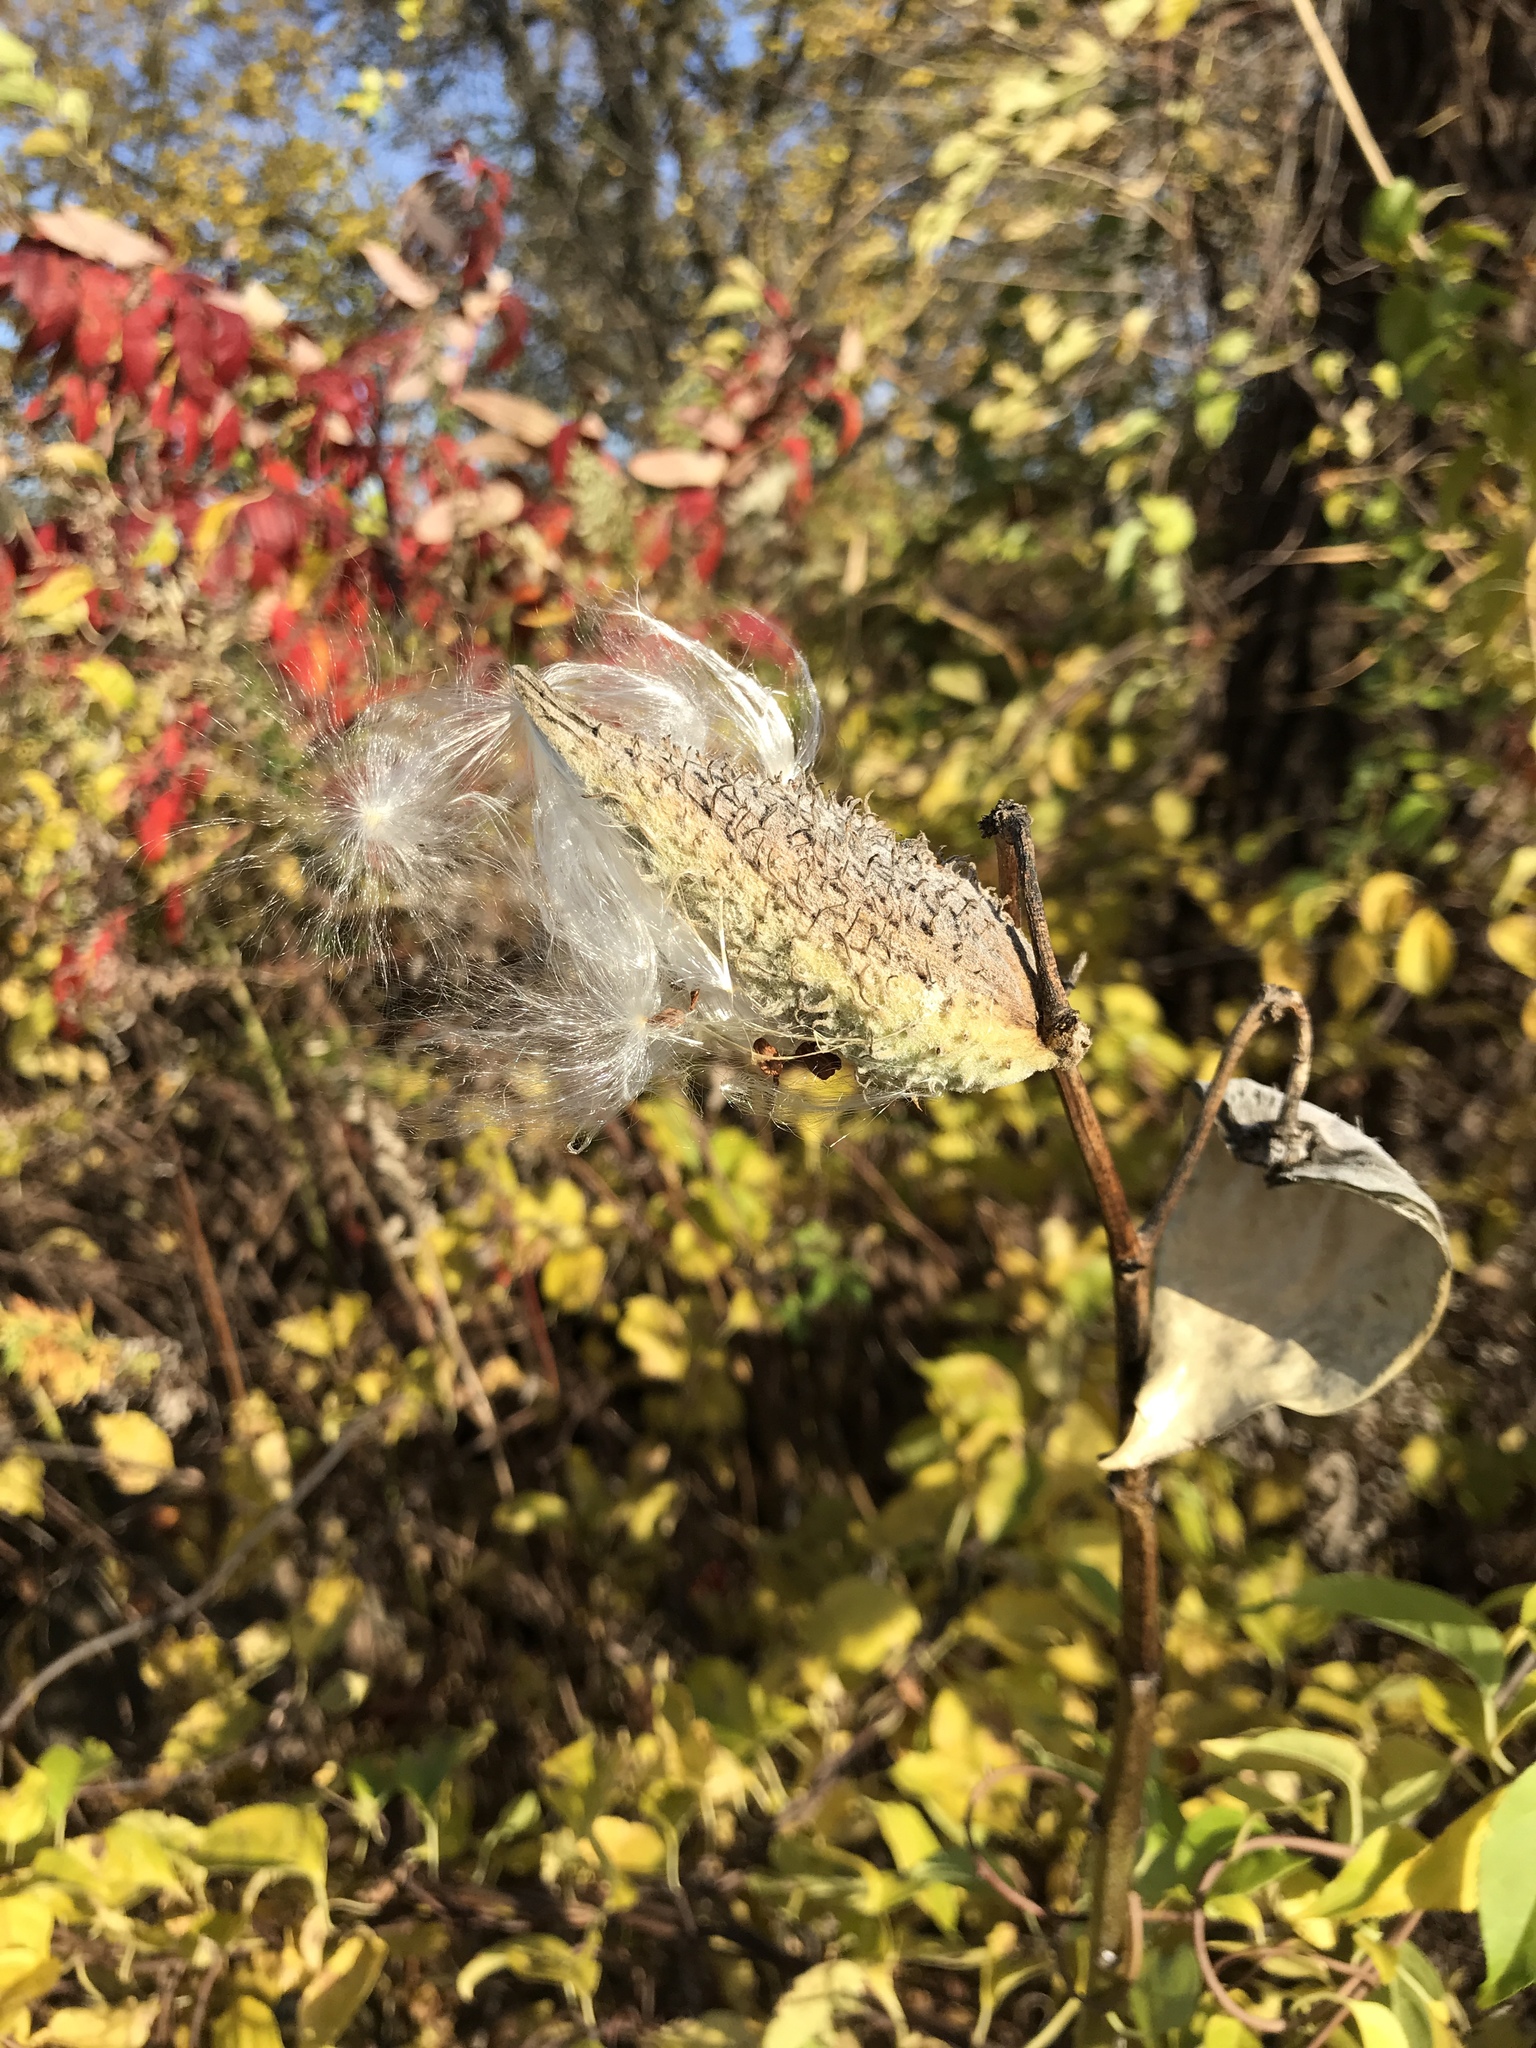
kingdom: Plantae
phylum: Tracheophyta
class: Magnoliopsida
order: Gentianales
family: Apocynaceae
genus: Asclepias
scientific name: Asclepias syriaca
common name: Common milkweed
